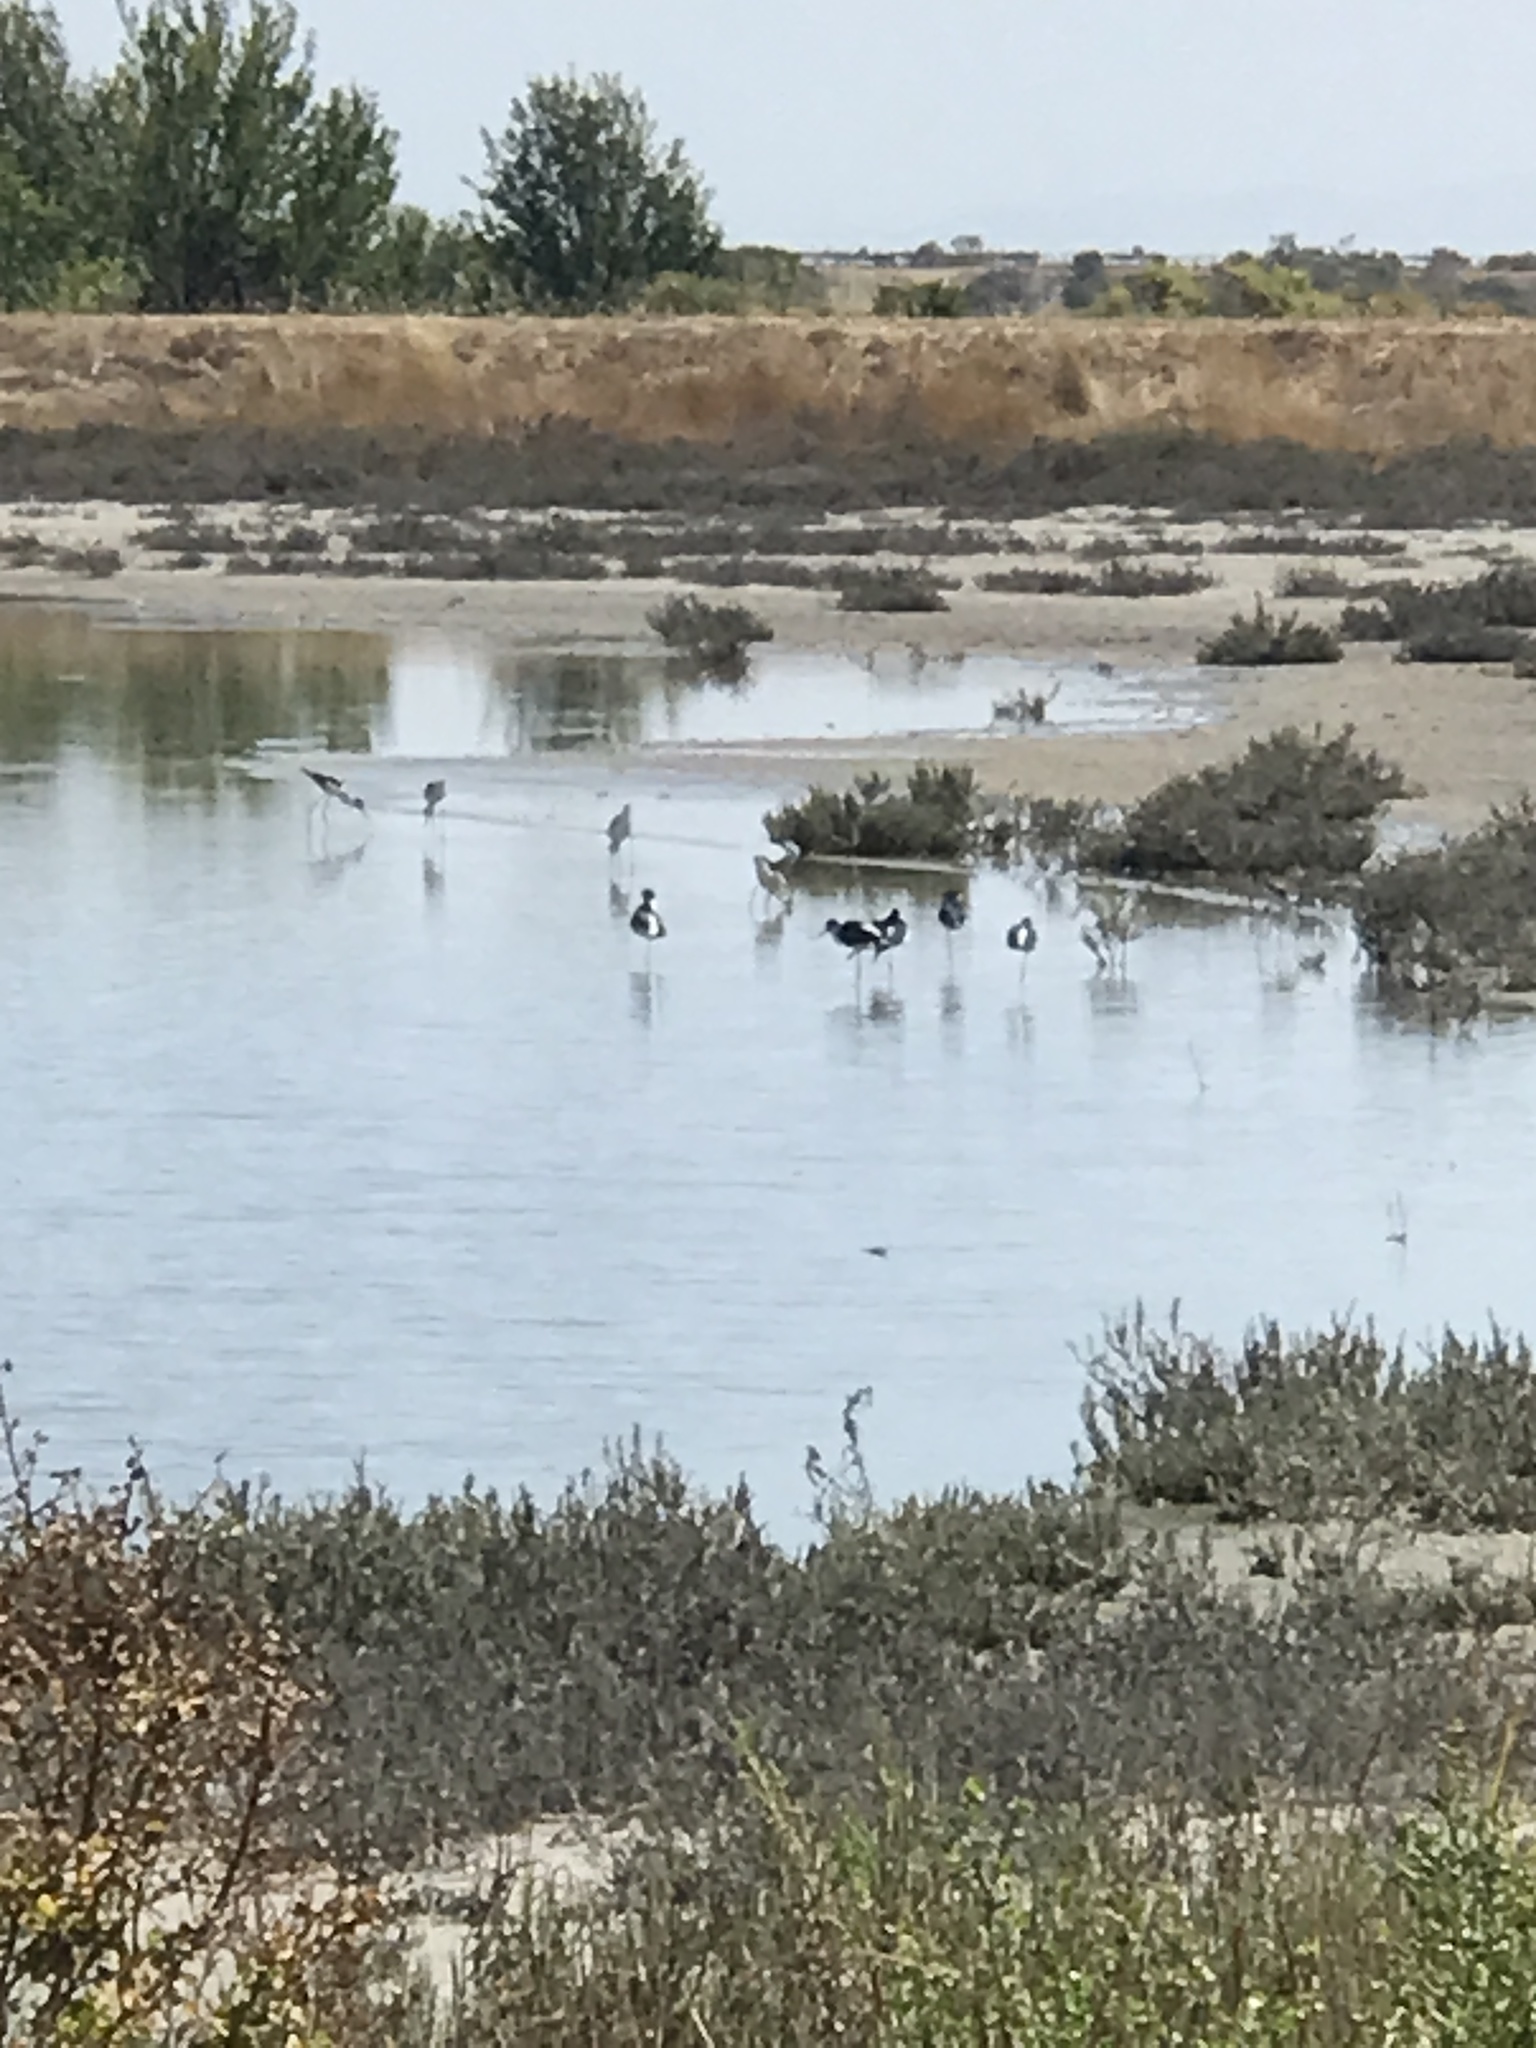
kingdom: Animalia
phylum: Chordata
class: Aves
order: Charadriiformes
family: Recurvirostridae
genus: Himantopus
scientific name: Himantopus mexicanus
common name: Black-necked stilt
